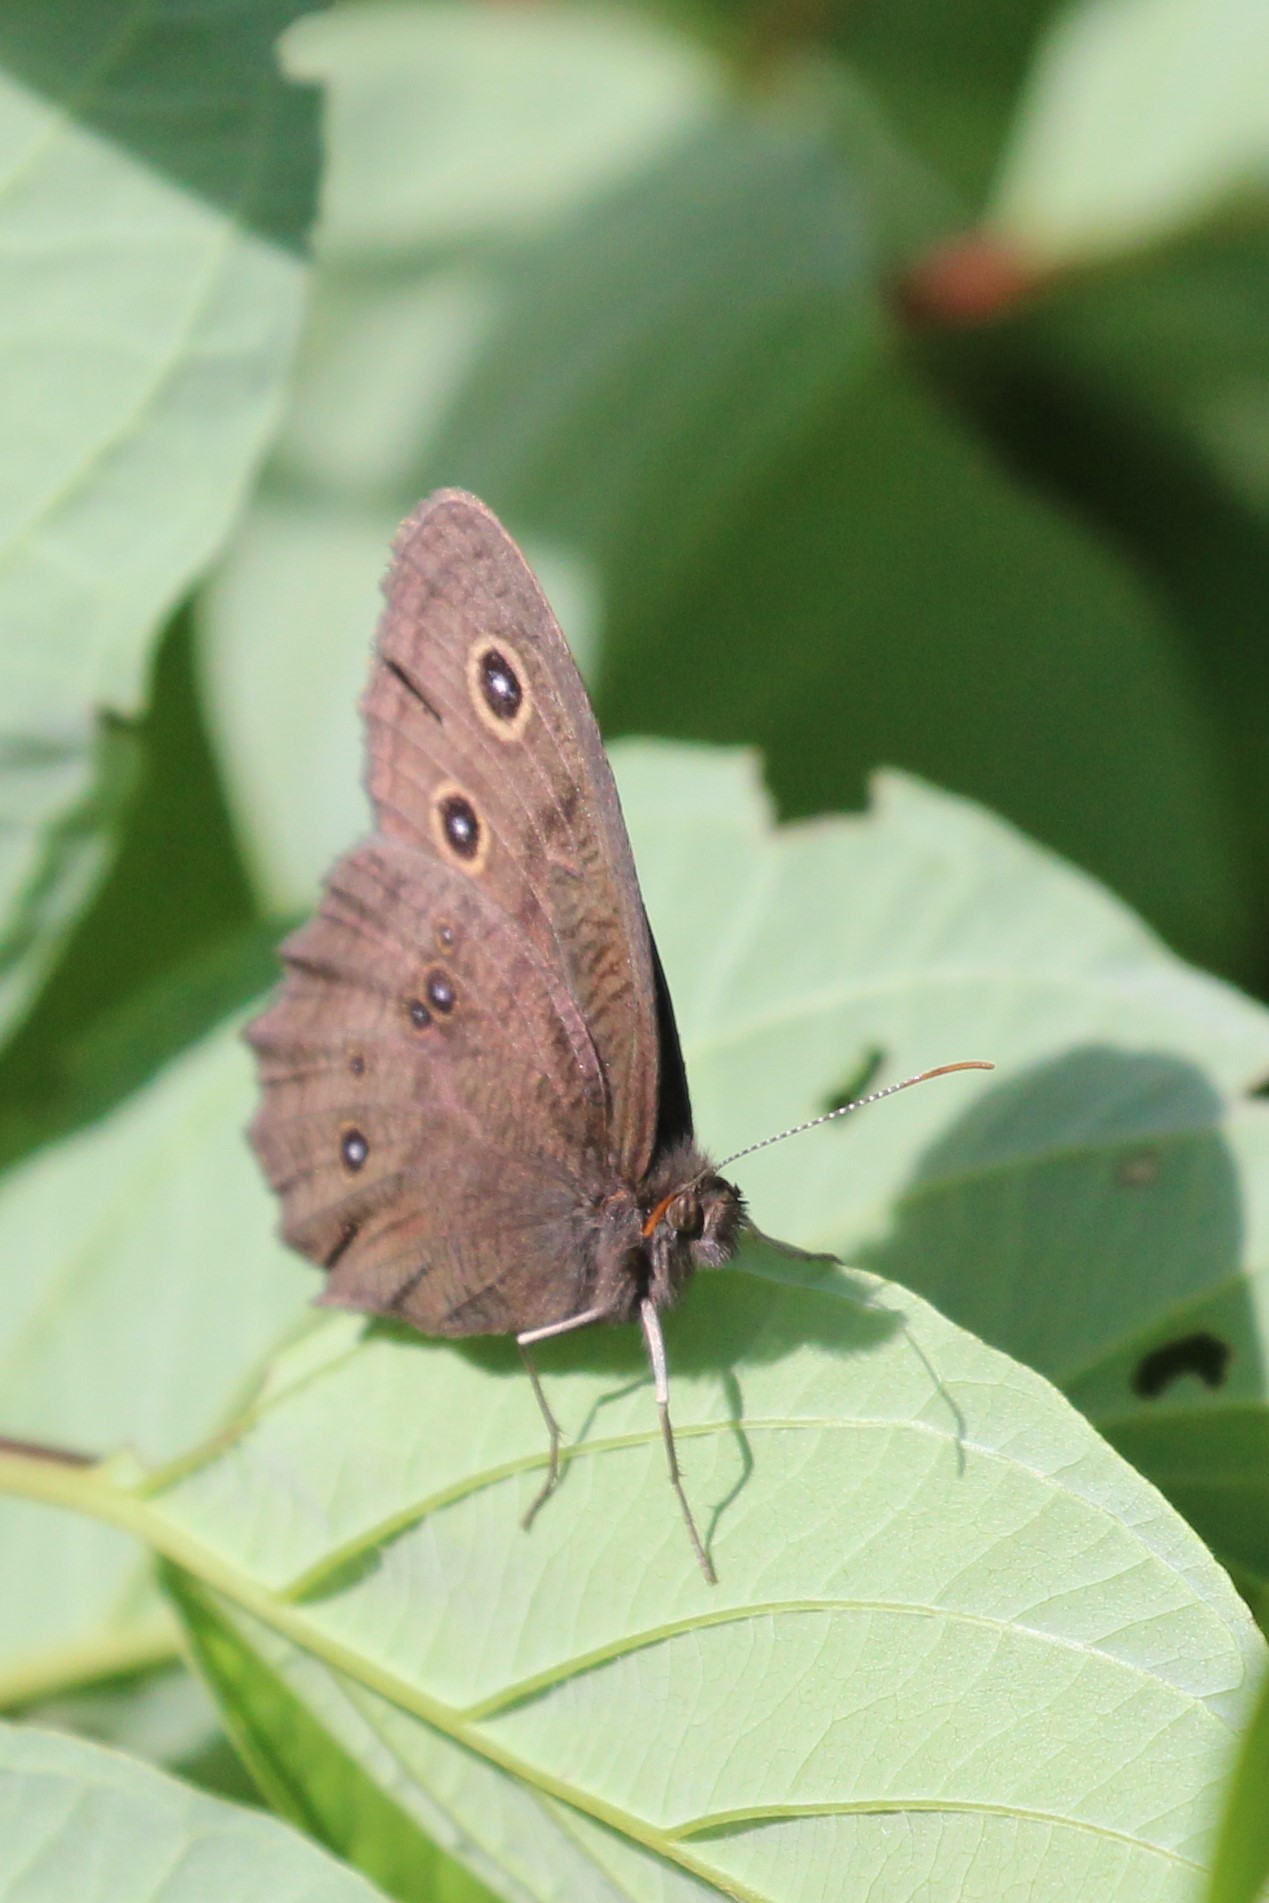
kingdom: Animalia
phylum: Arthropoda
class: Insecta
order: Lepidoptera
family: Nymphalidae
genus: Cercyonis
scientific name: Cercyonis pegala
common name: Common wood-nymph
